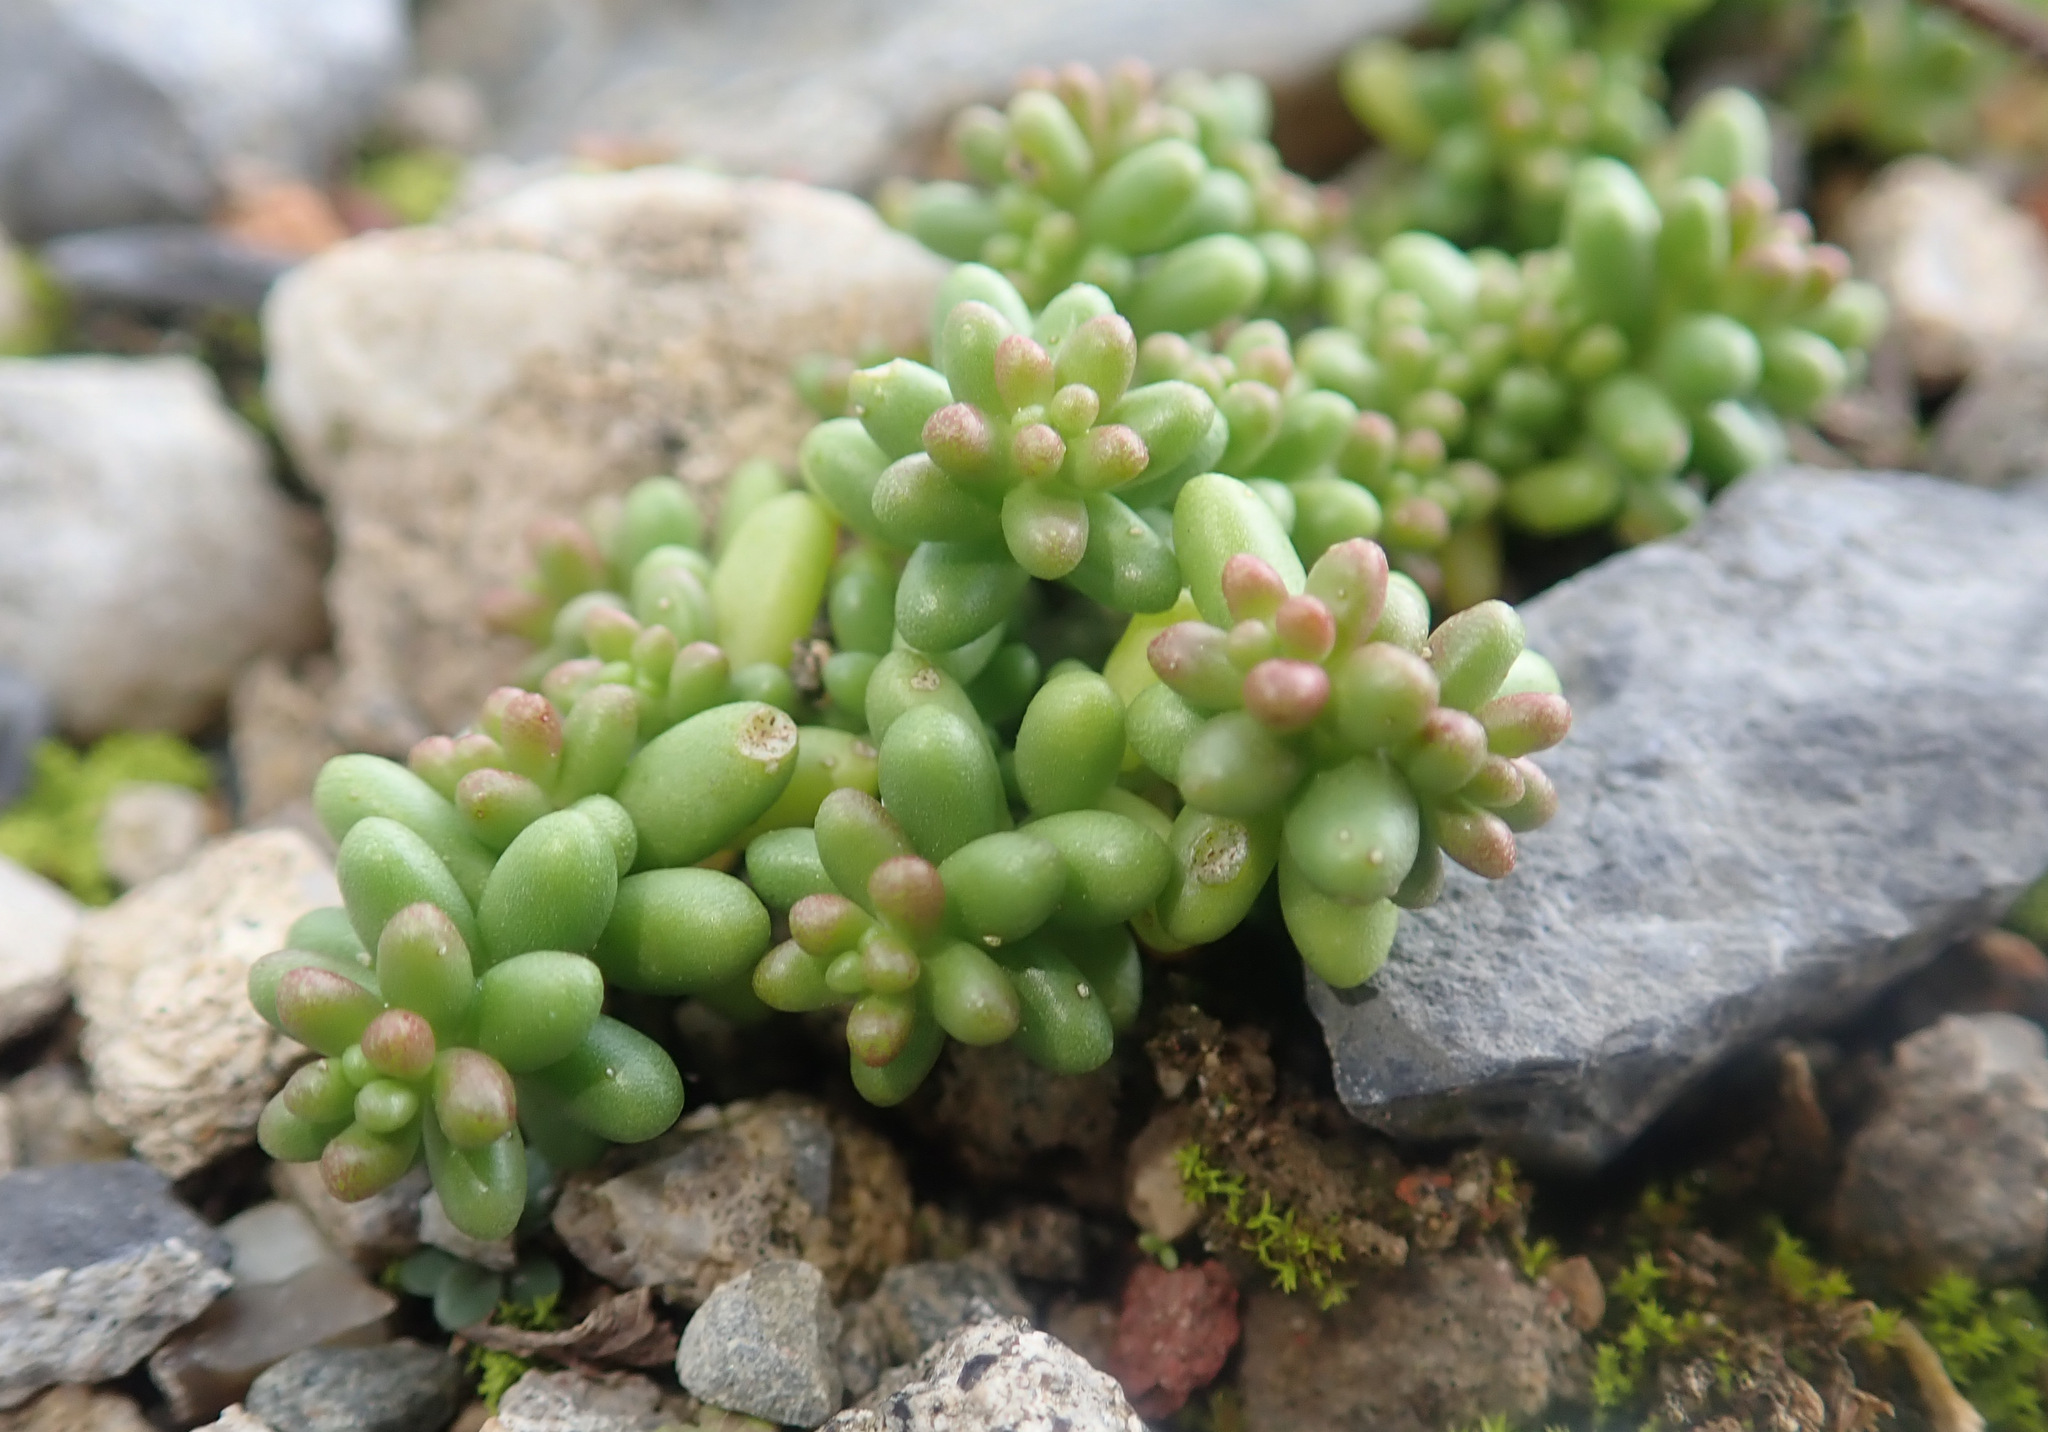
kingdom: Plantae
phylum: Tracheophyta
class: Magnoliopsida
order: Saxifragales
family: Crassulaceae
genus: Sedum
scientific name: Sedum album
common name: White stonecrop
